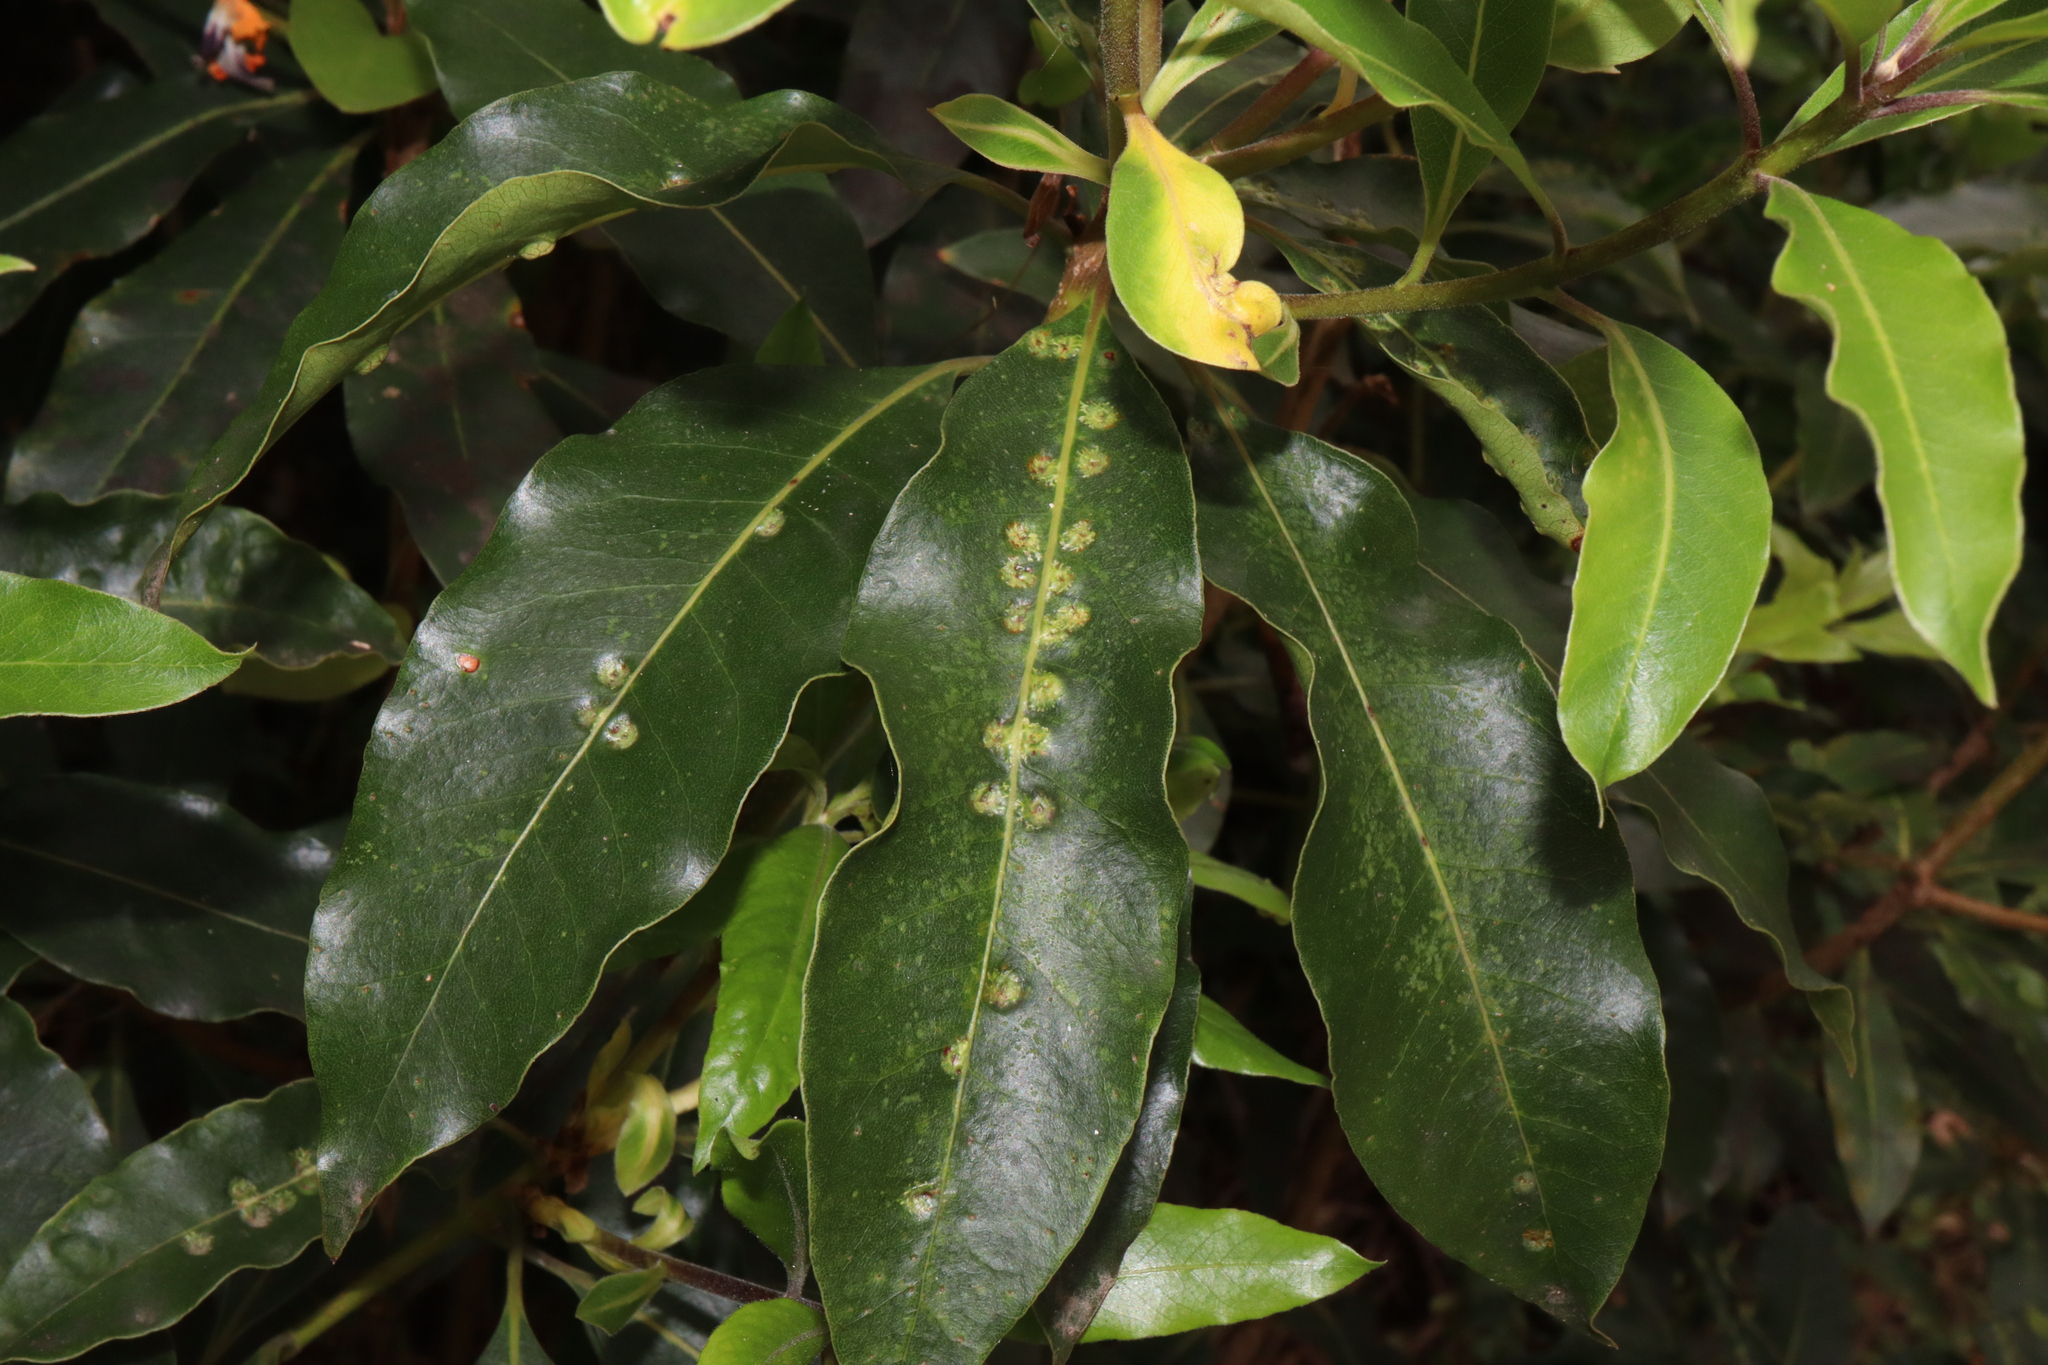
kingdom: Animalia
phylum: Arthropoda
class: Insecta
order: Diptera
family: Agromyzidae
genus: Phytoliriomyza
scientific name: Phytoliriomyza pittosporophylli
